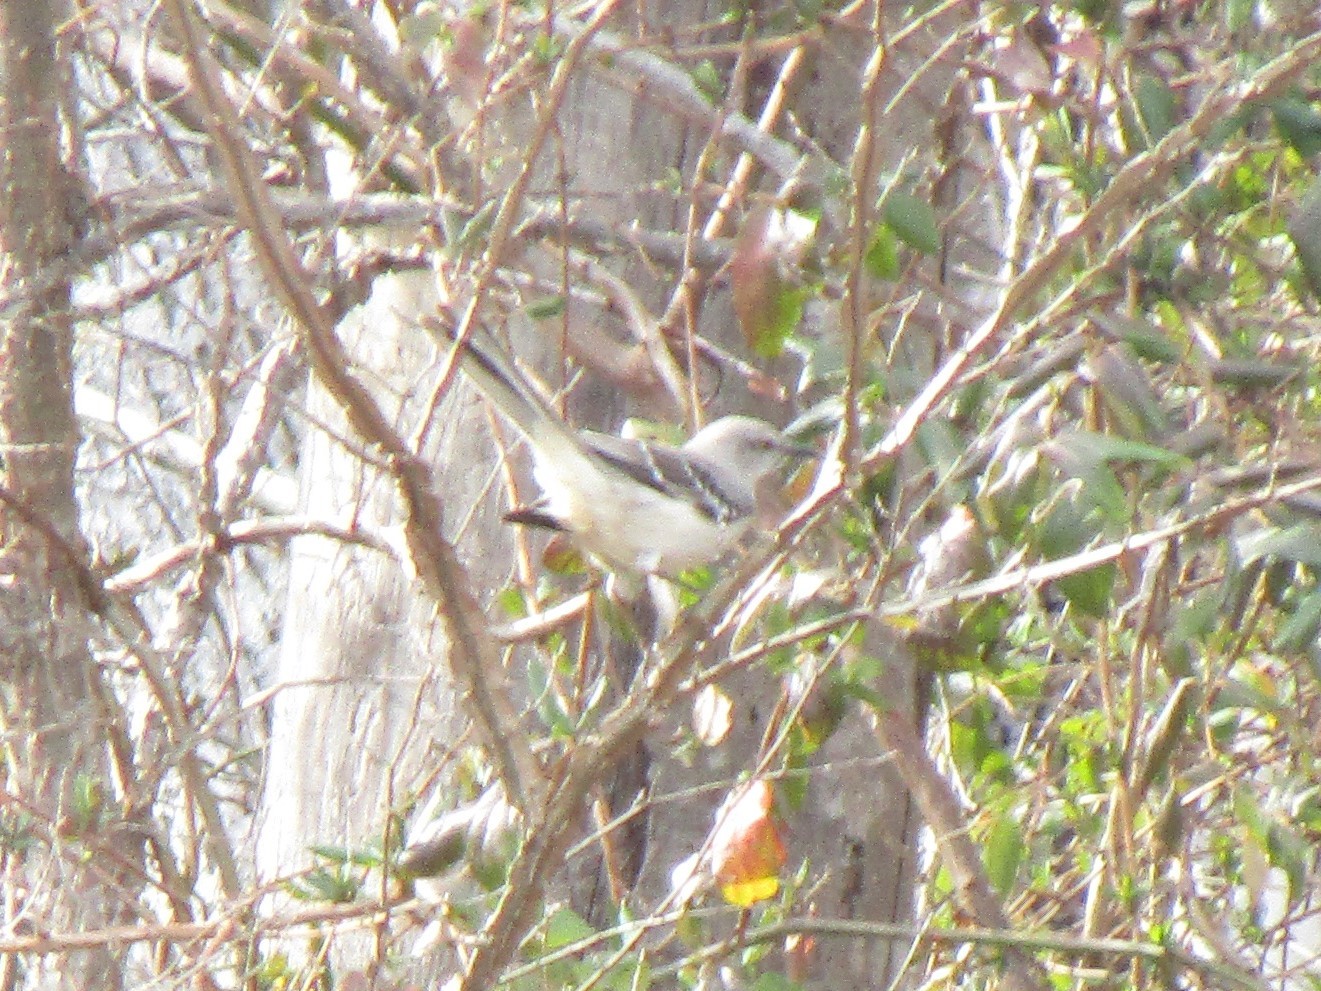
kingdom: Animalia
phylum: Chordata
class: Aves
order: Passeriformes
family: Mimidae
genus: Mimus
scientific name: Mimus polyglottos
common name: Northern mockingbird
